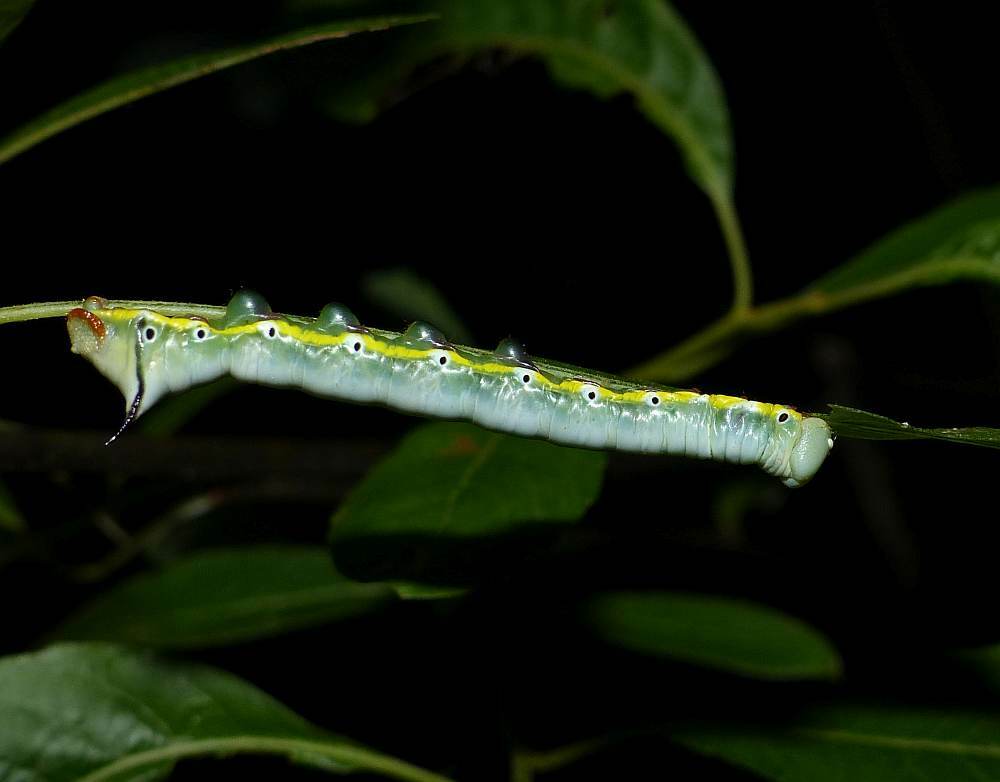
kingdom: Animalia
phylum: Arthropoda
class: Insecta
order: Lepidoptera
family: Notodontidae
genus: Pheosia
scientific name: Pheosia rimosa
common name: Black-rimmed prominent
